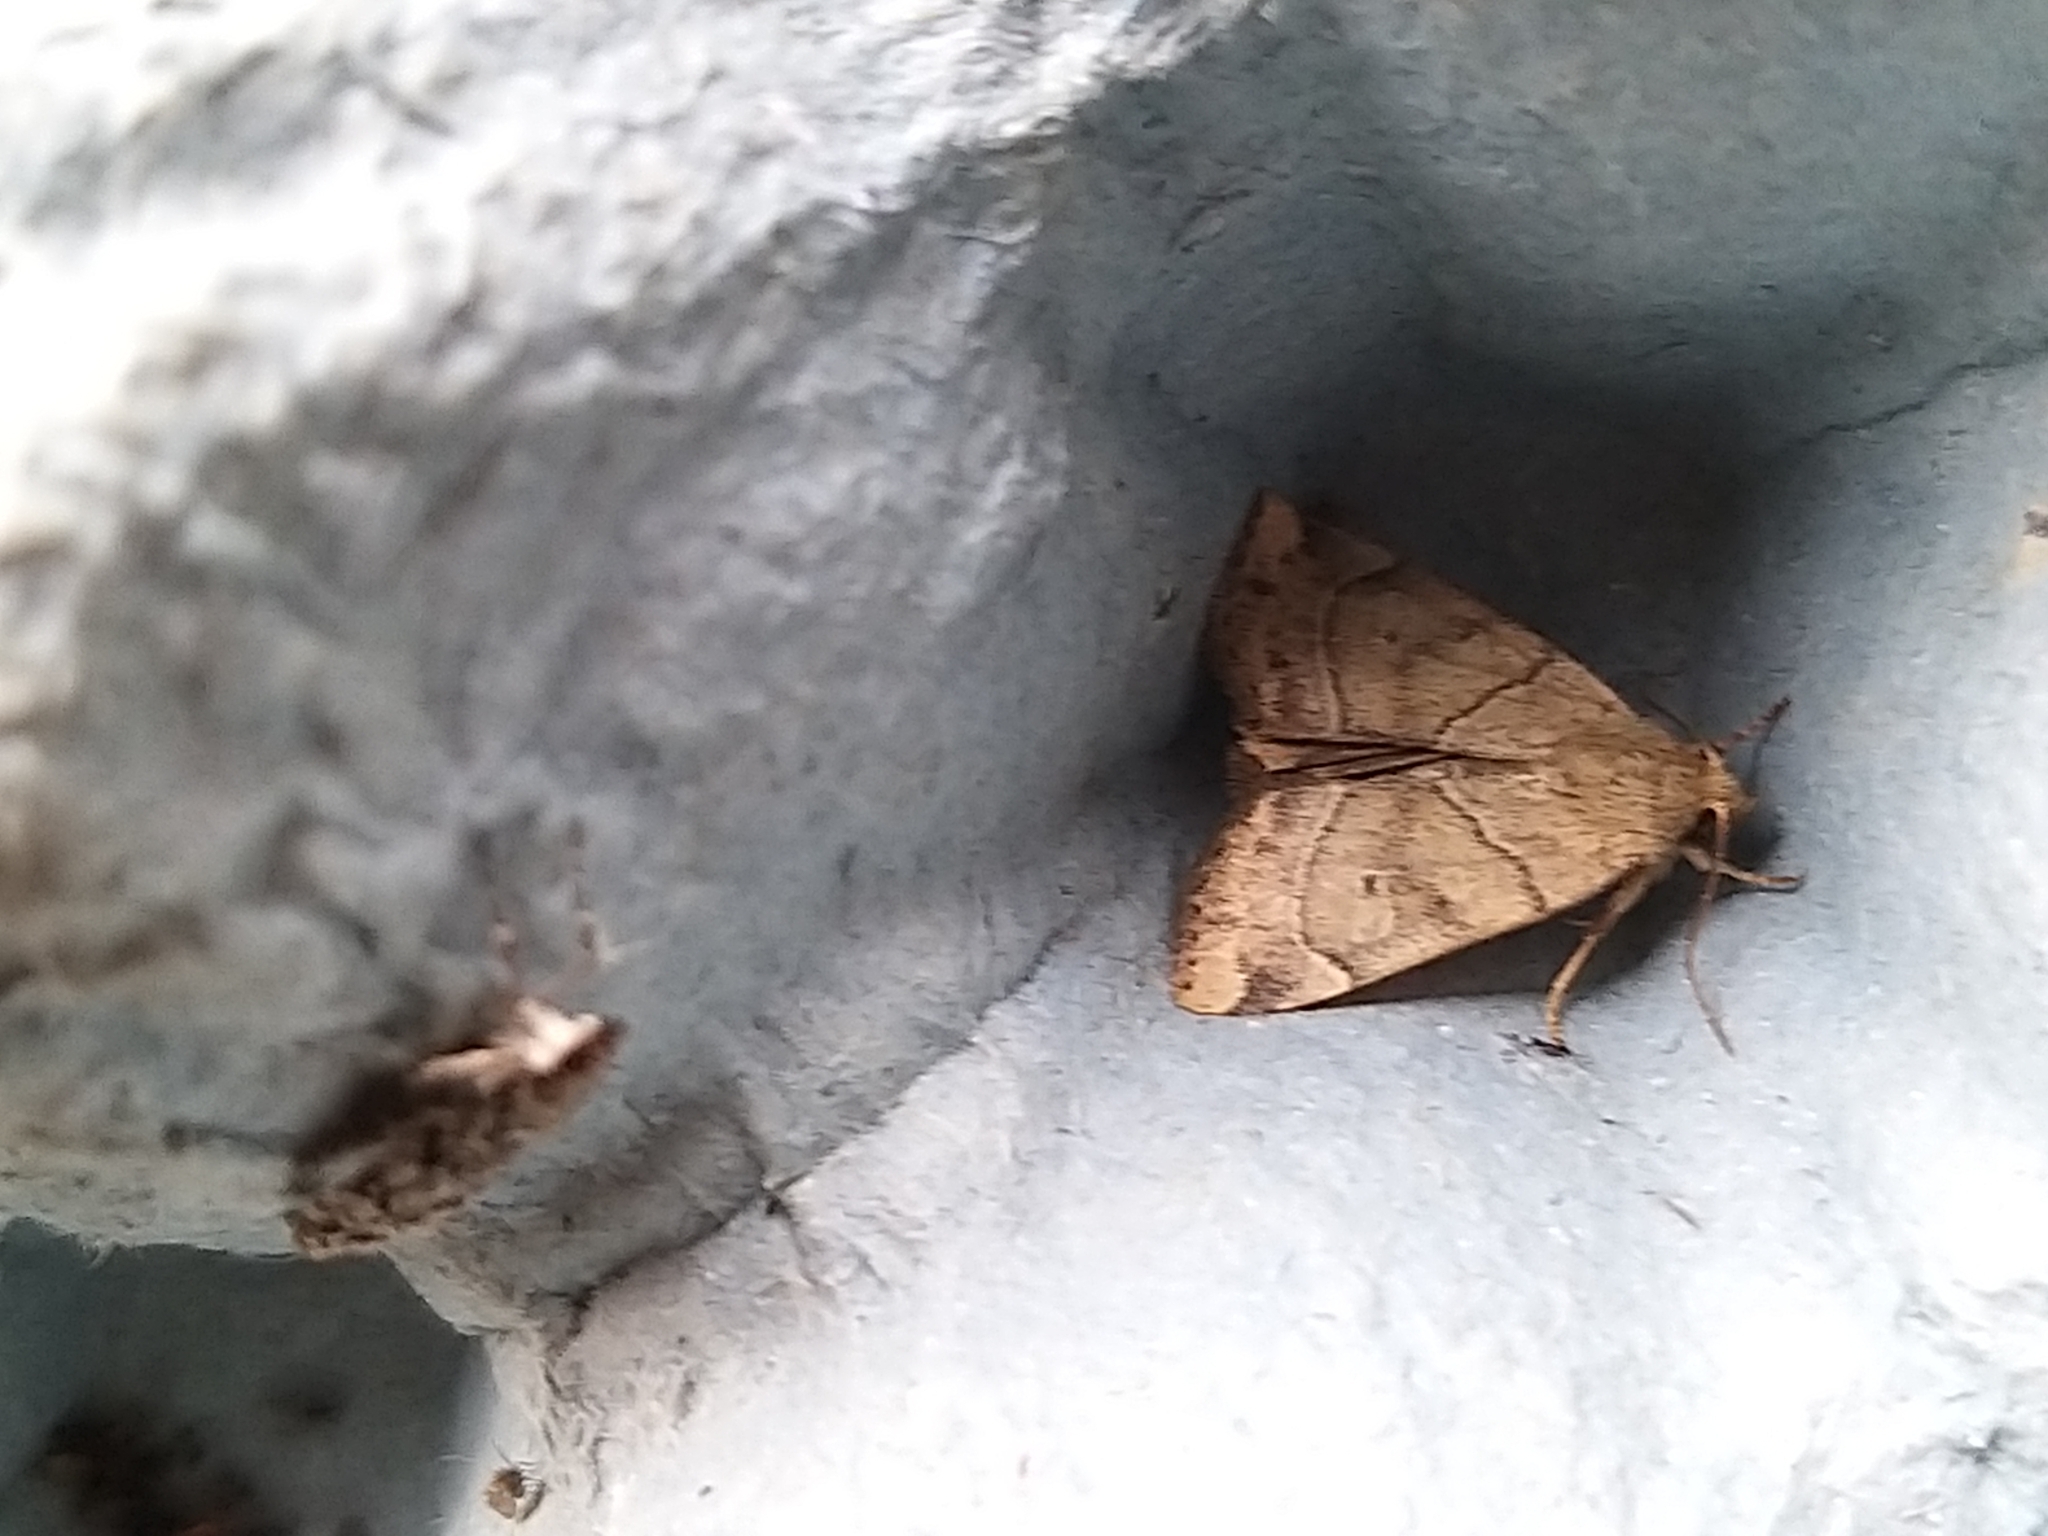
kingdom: Animalia
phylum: Arthropoda
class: Insecta
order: Lepidoptera
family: Noctuidae
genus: Cosmia
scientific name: Cosmia trapezina
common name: Dun-bar
